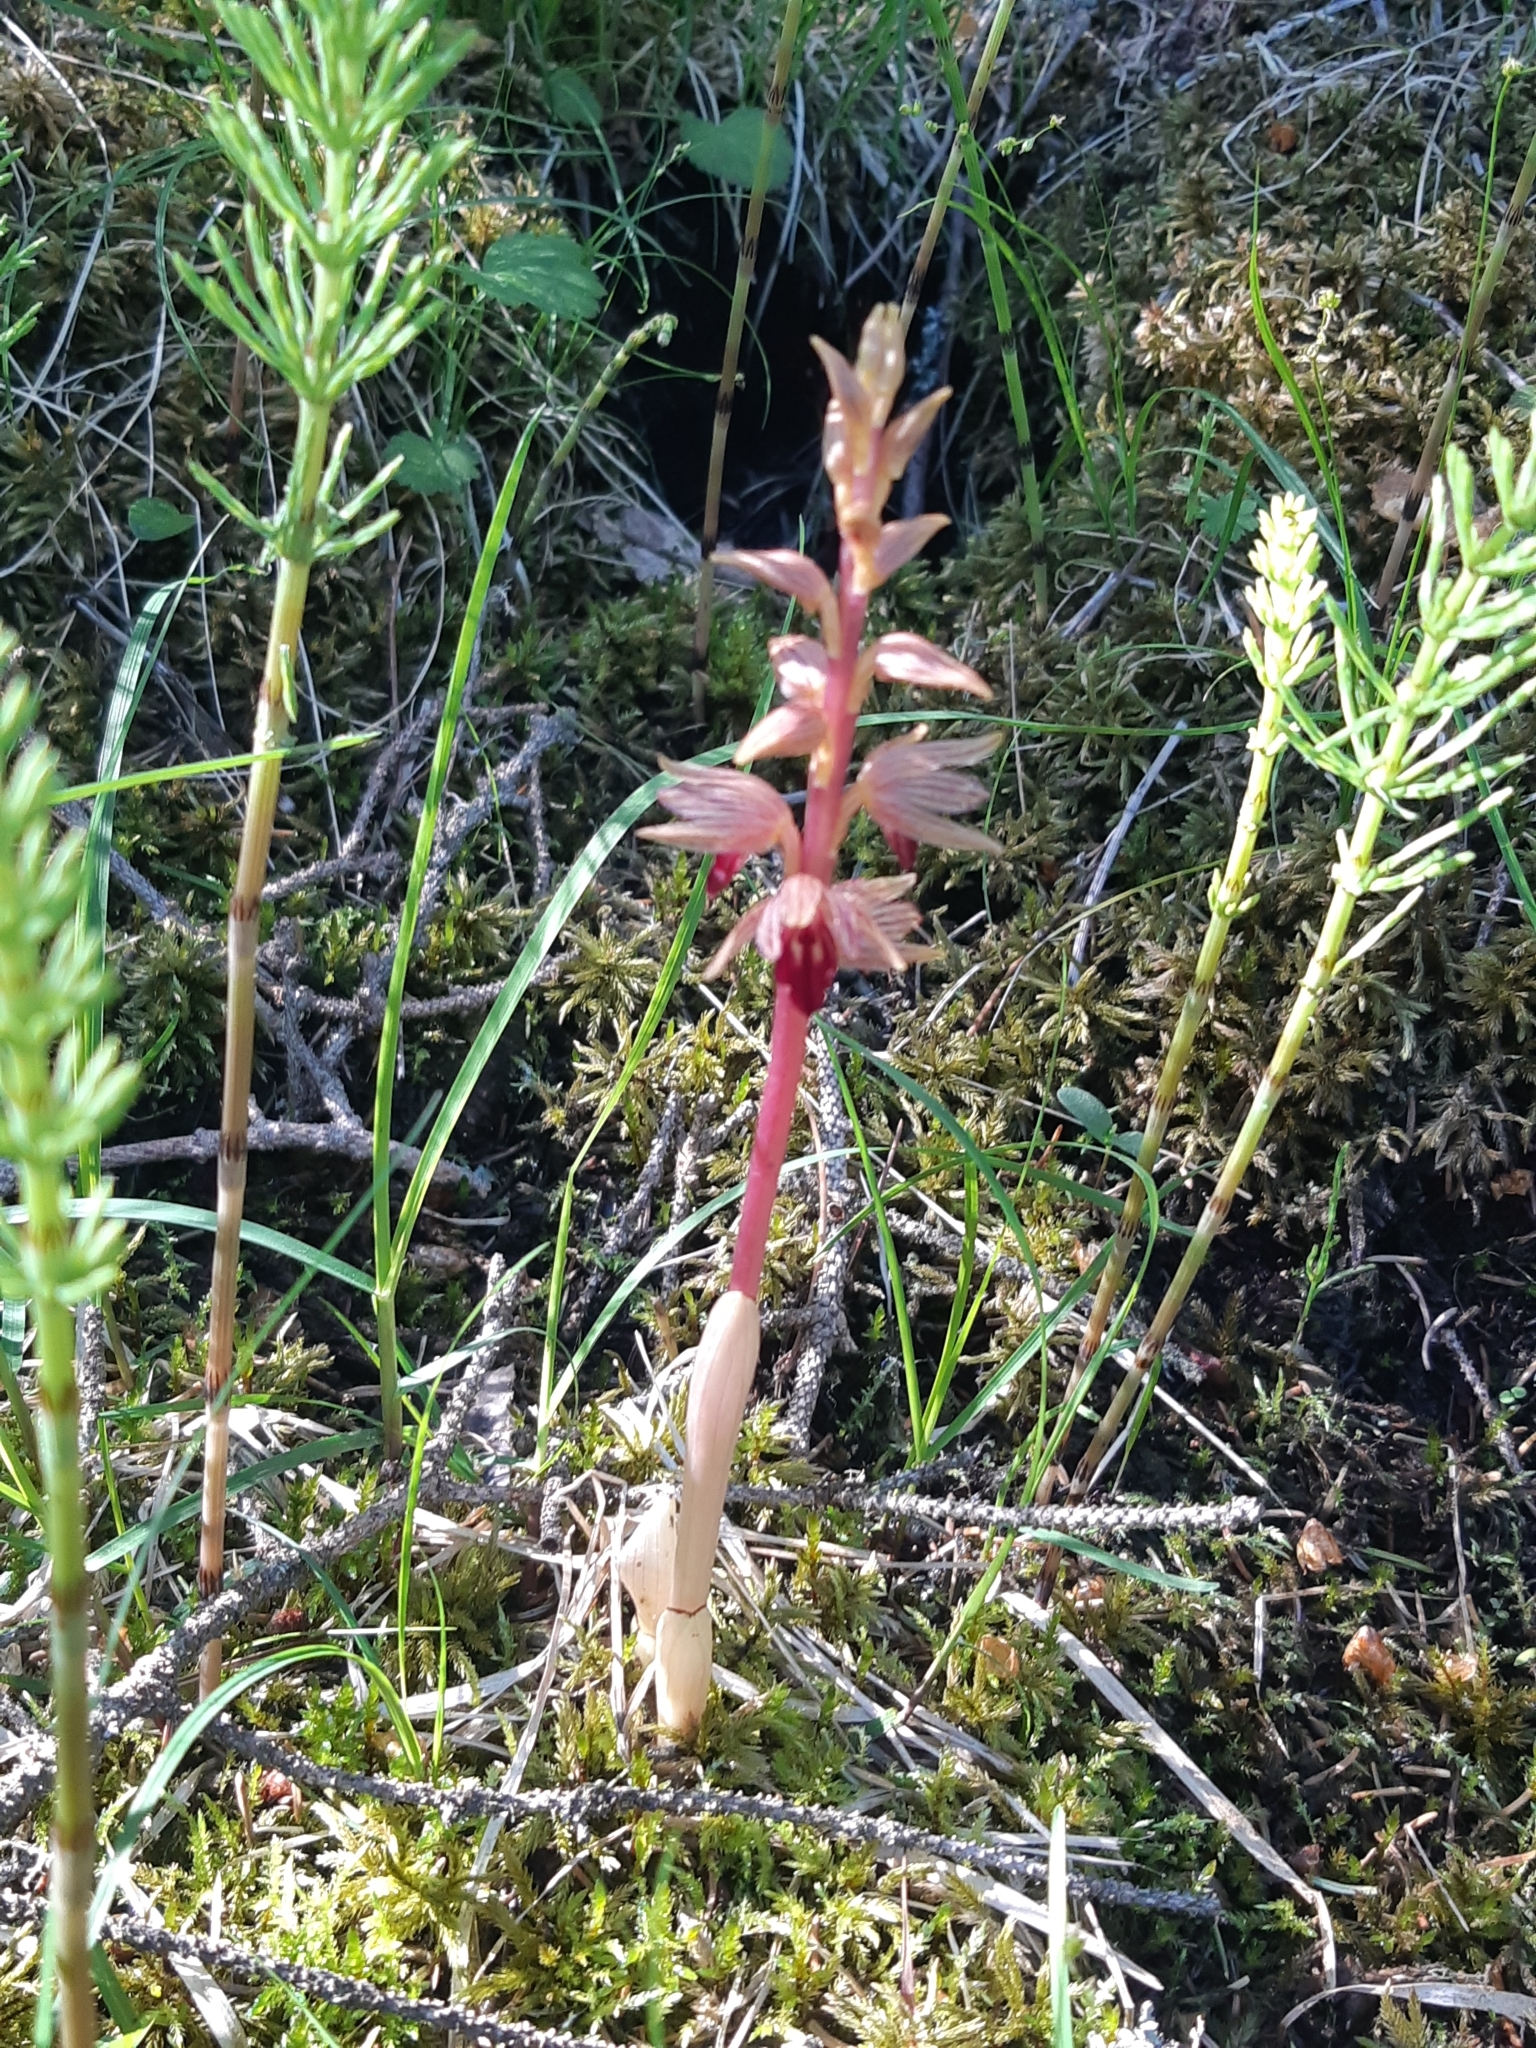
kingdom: Plantae
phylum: Tracheophyta
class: Liliopsida
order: Asparagales
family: Orchidaceae
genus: Corallorhiza
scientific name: Corallorhiza striata
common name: Hooded coralroot
